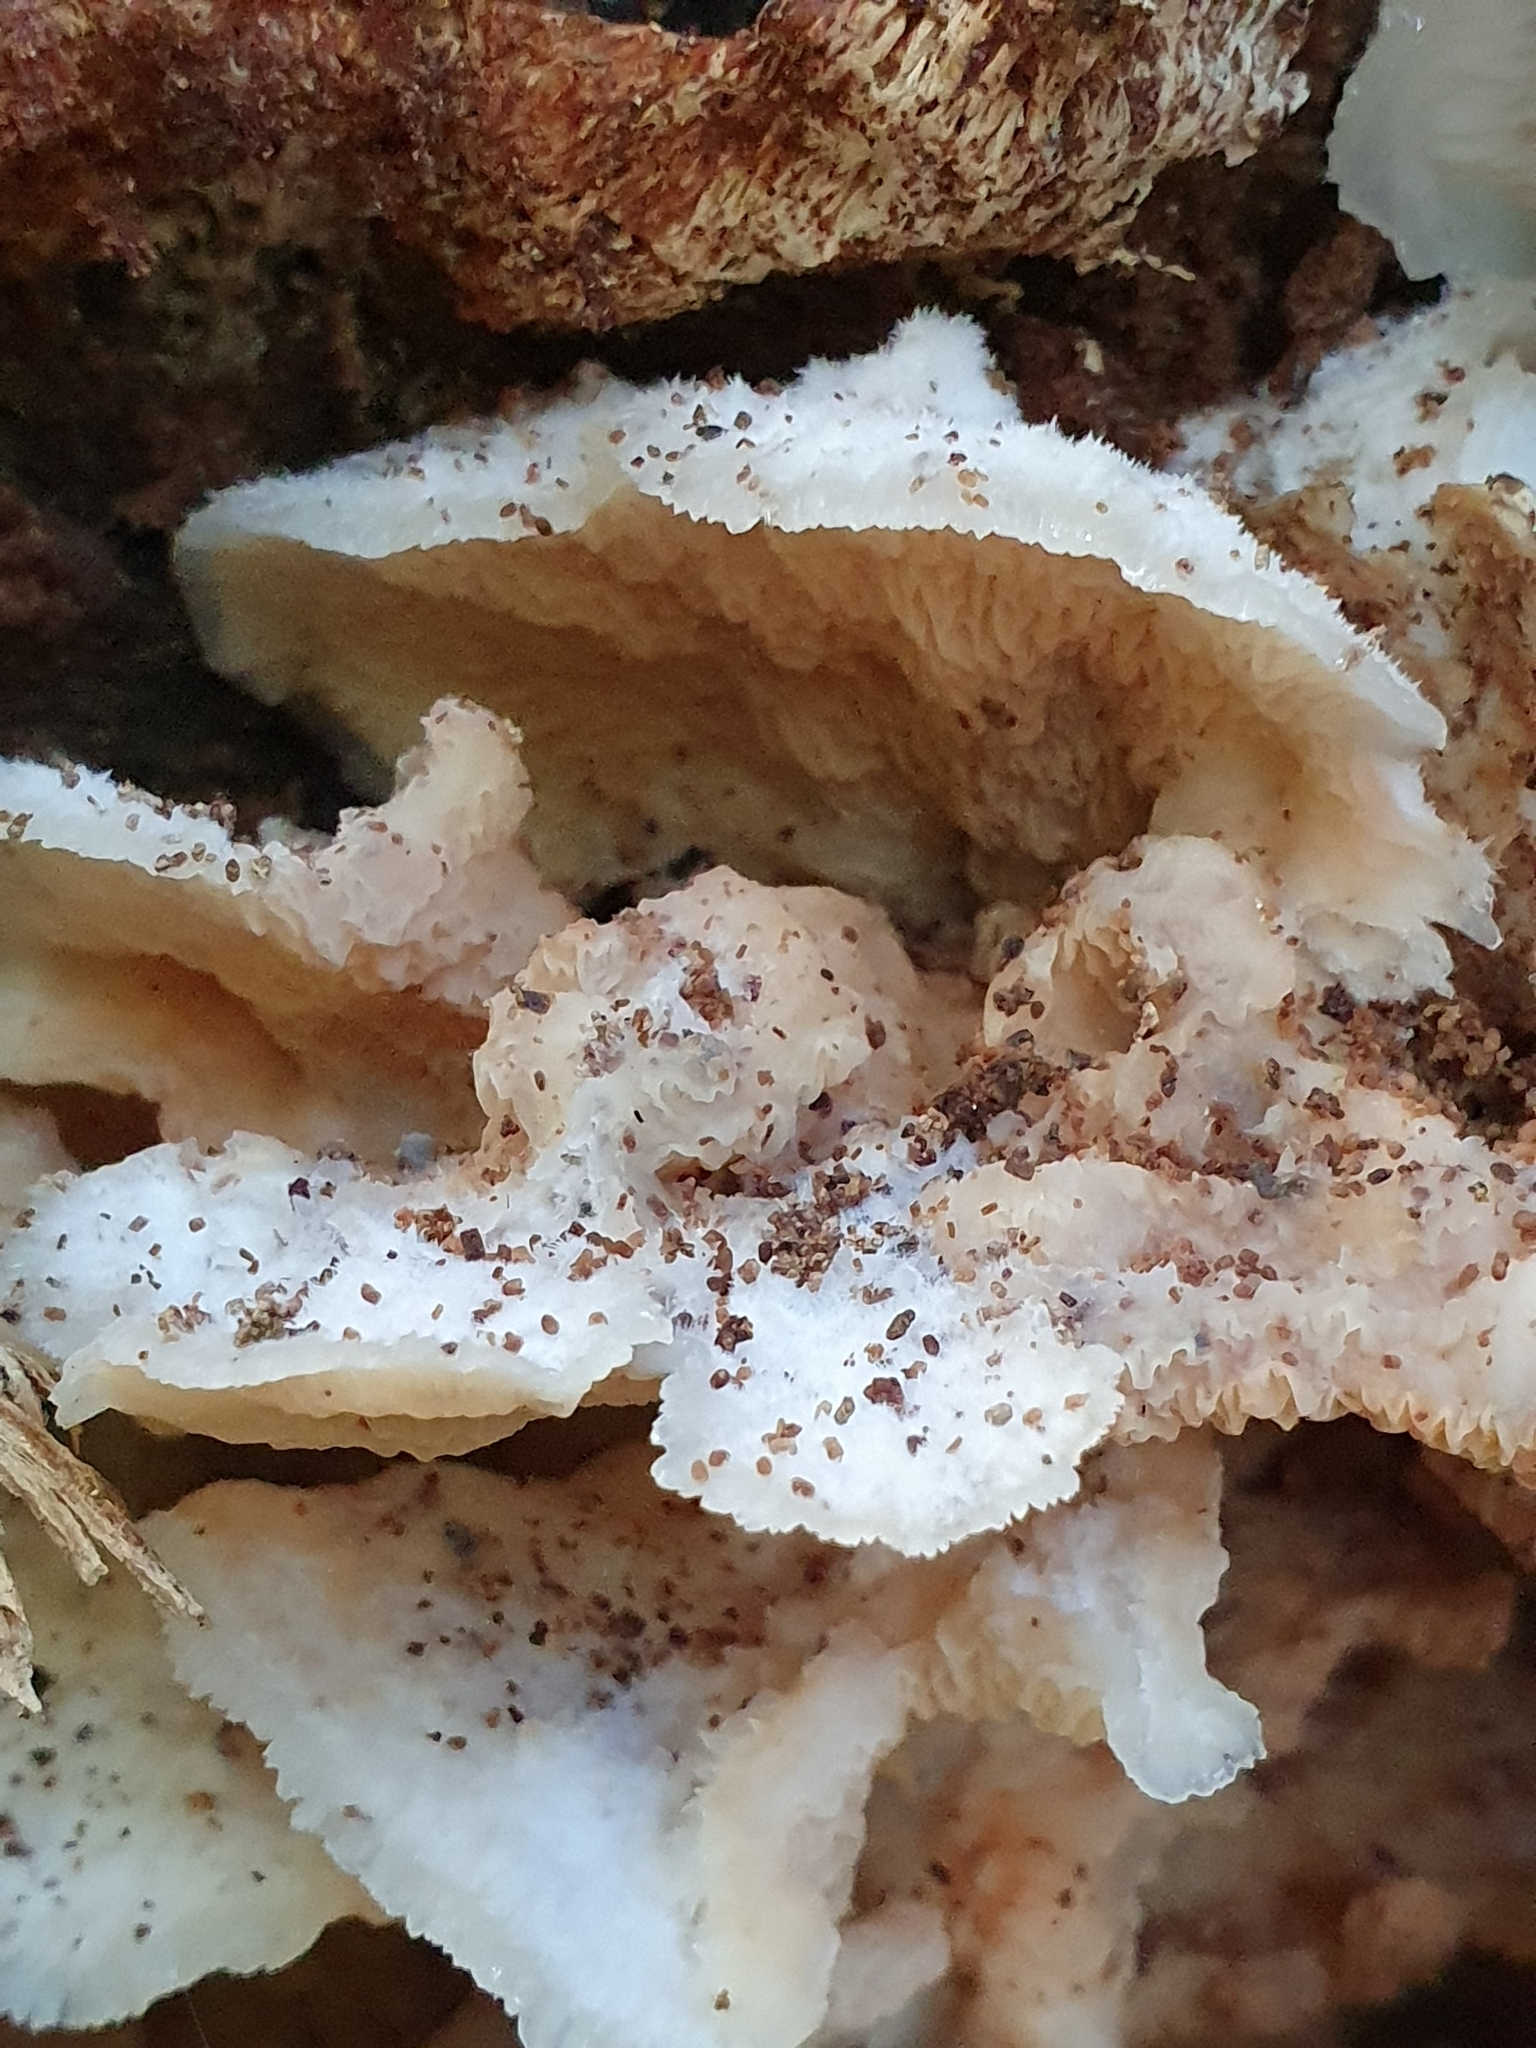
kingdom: Fungi
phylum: Basidiomycota
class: Agaricomycetes
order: Polyporales
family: Meruliaceae
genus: Phlebia
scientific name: Phlebia tremellosa
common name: Jelly rot
